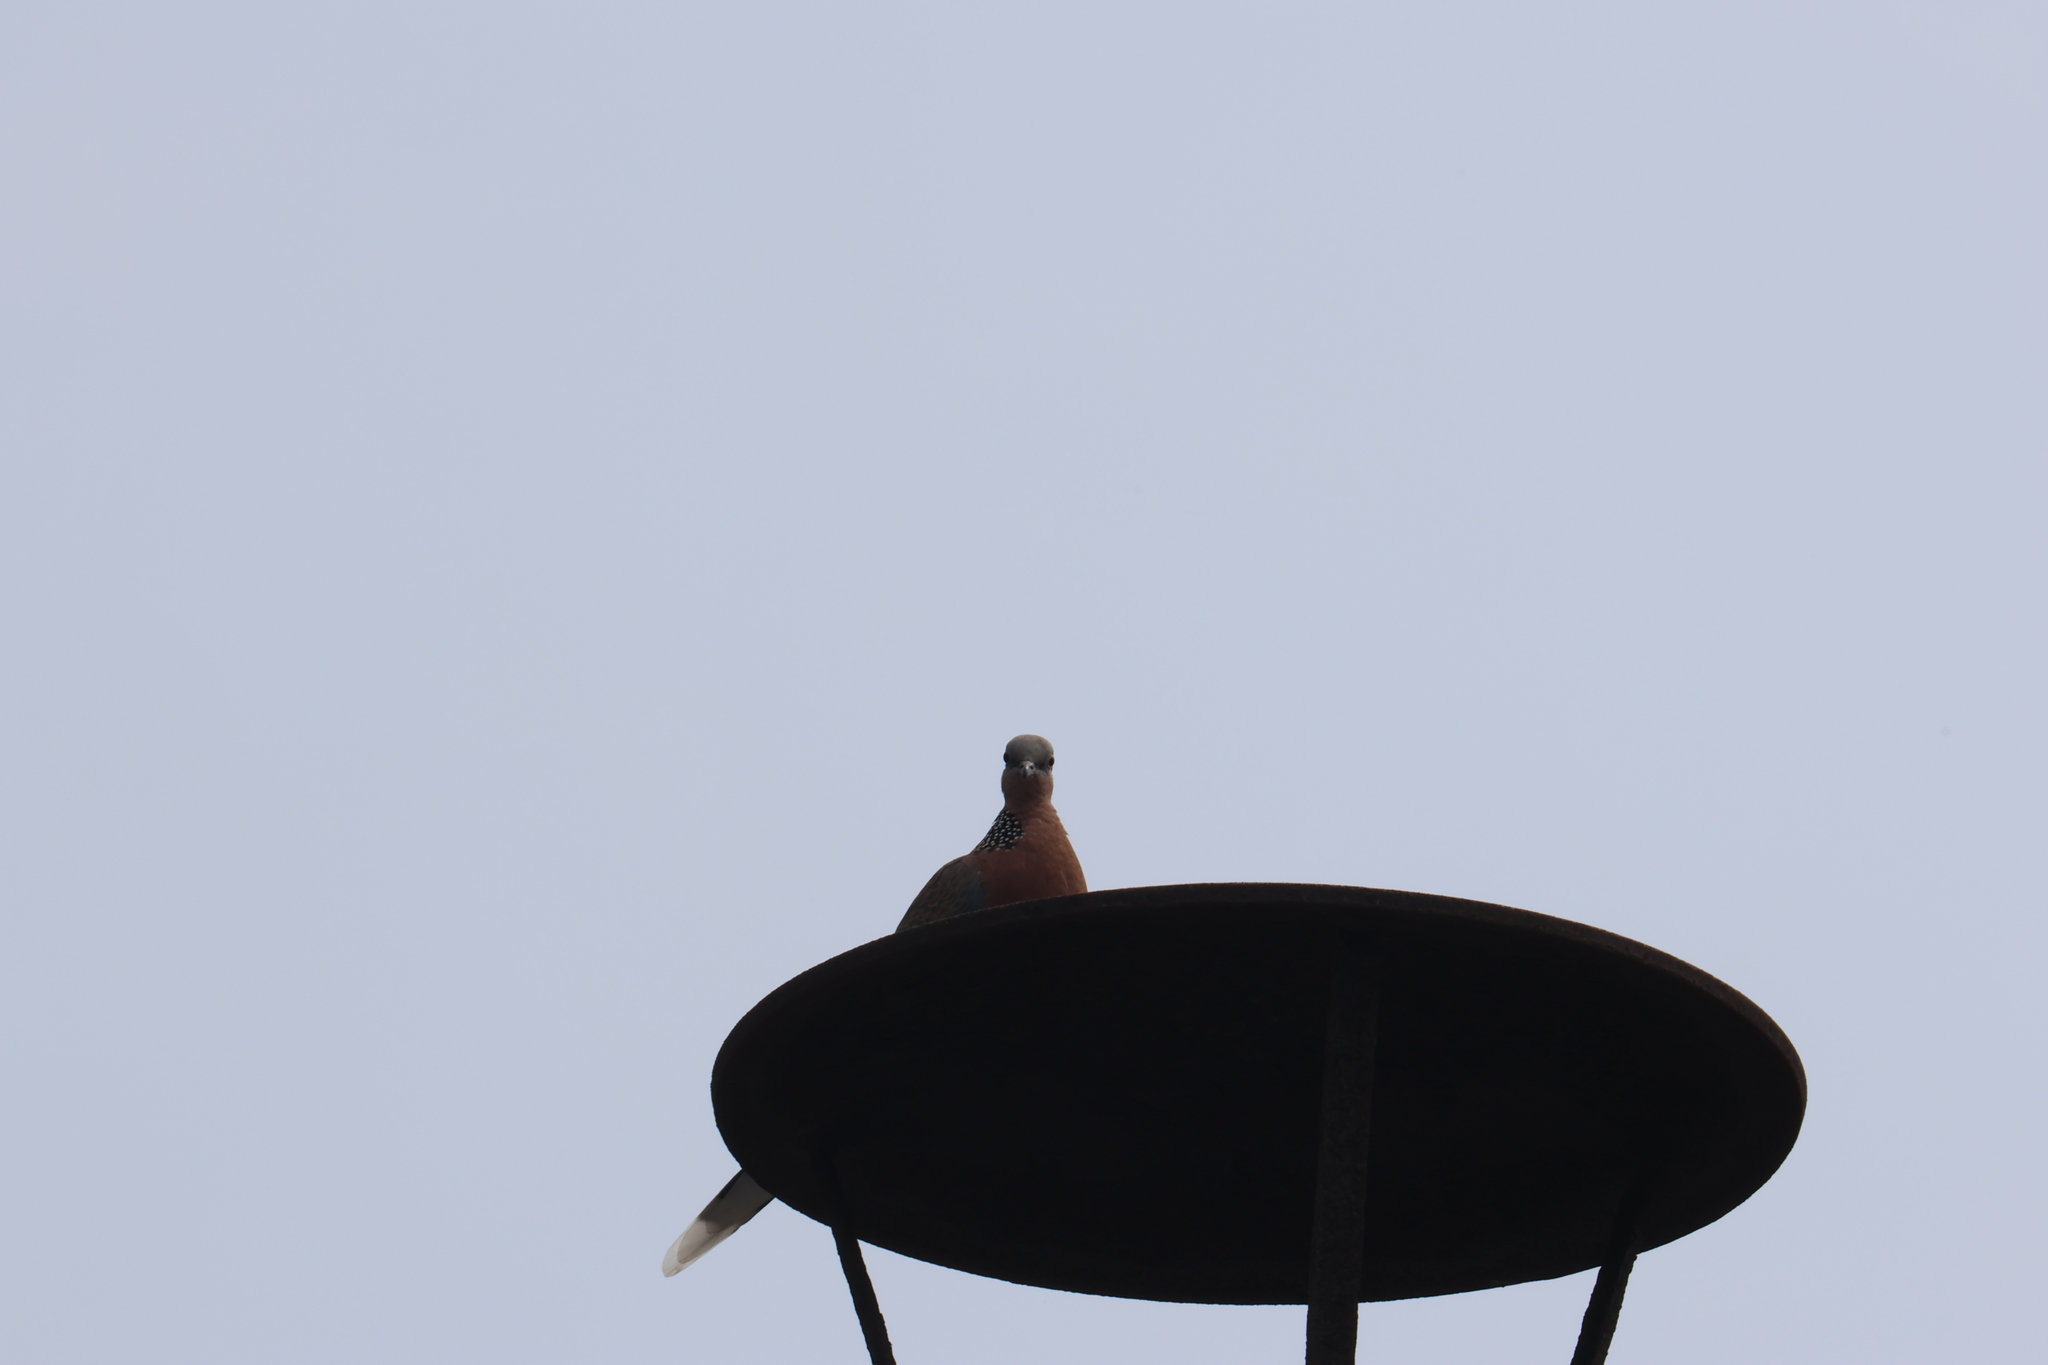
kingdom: Animalia
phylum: Chordata
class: Aves
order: Columbiformes
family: Columbidae
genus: Spilopelia
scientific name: Spilopelia chinensis
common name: Spotted dove
